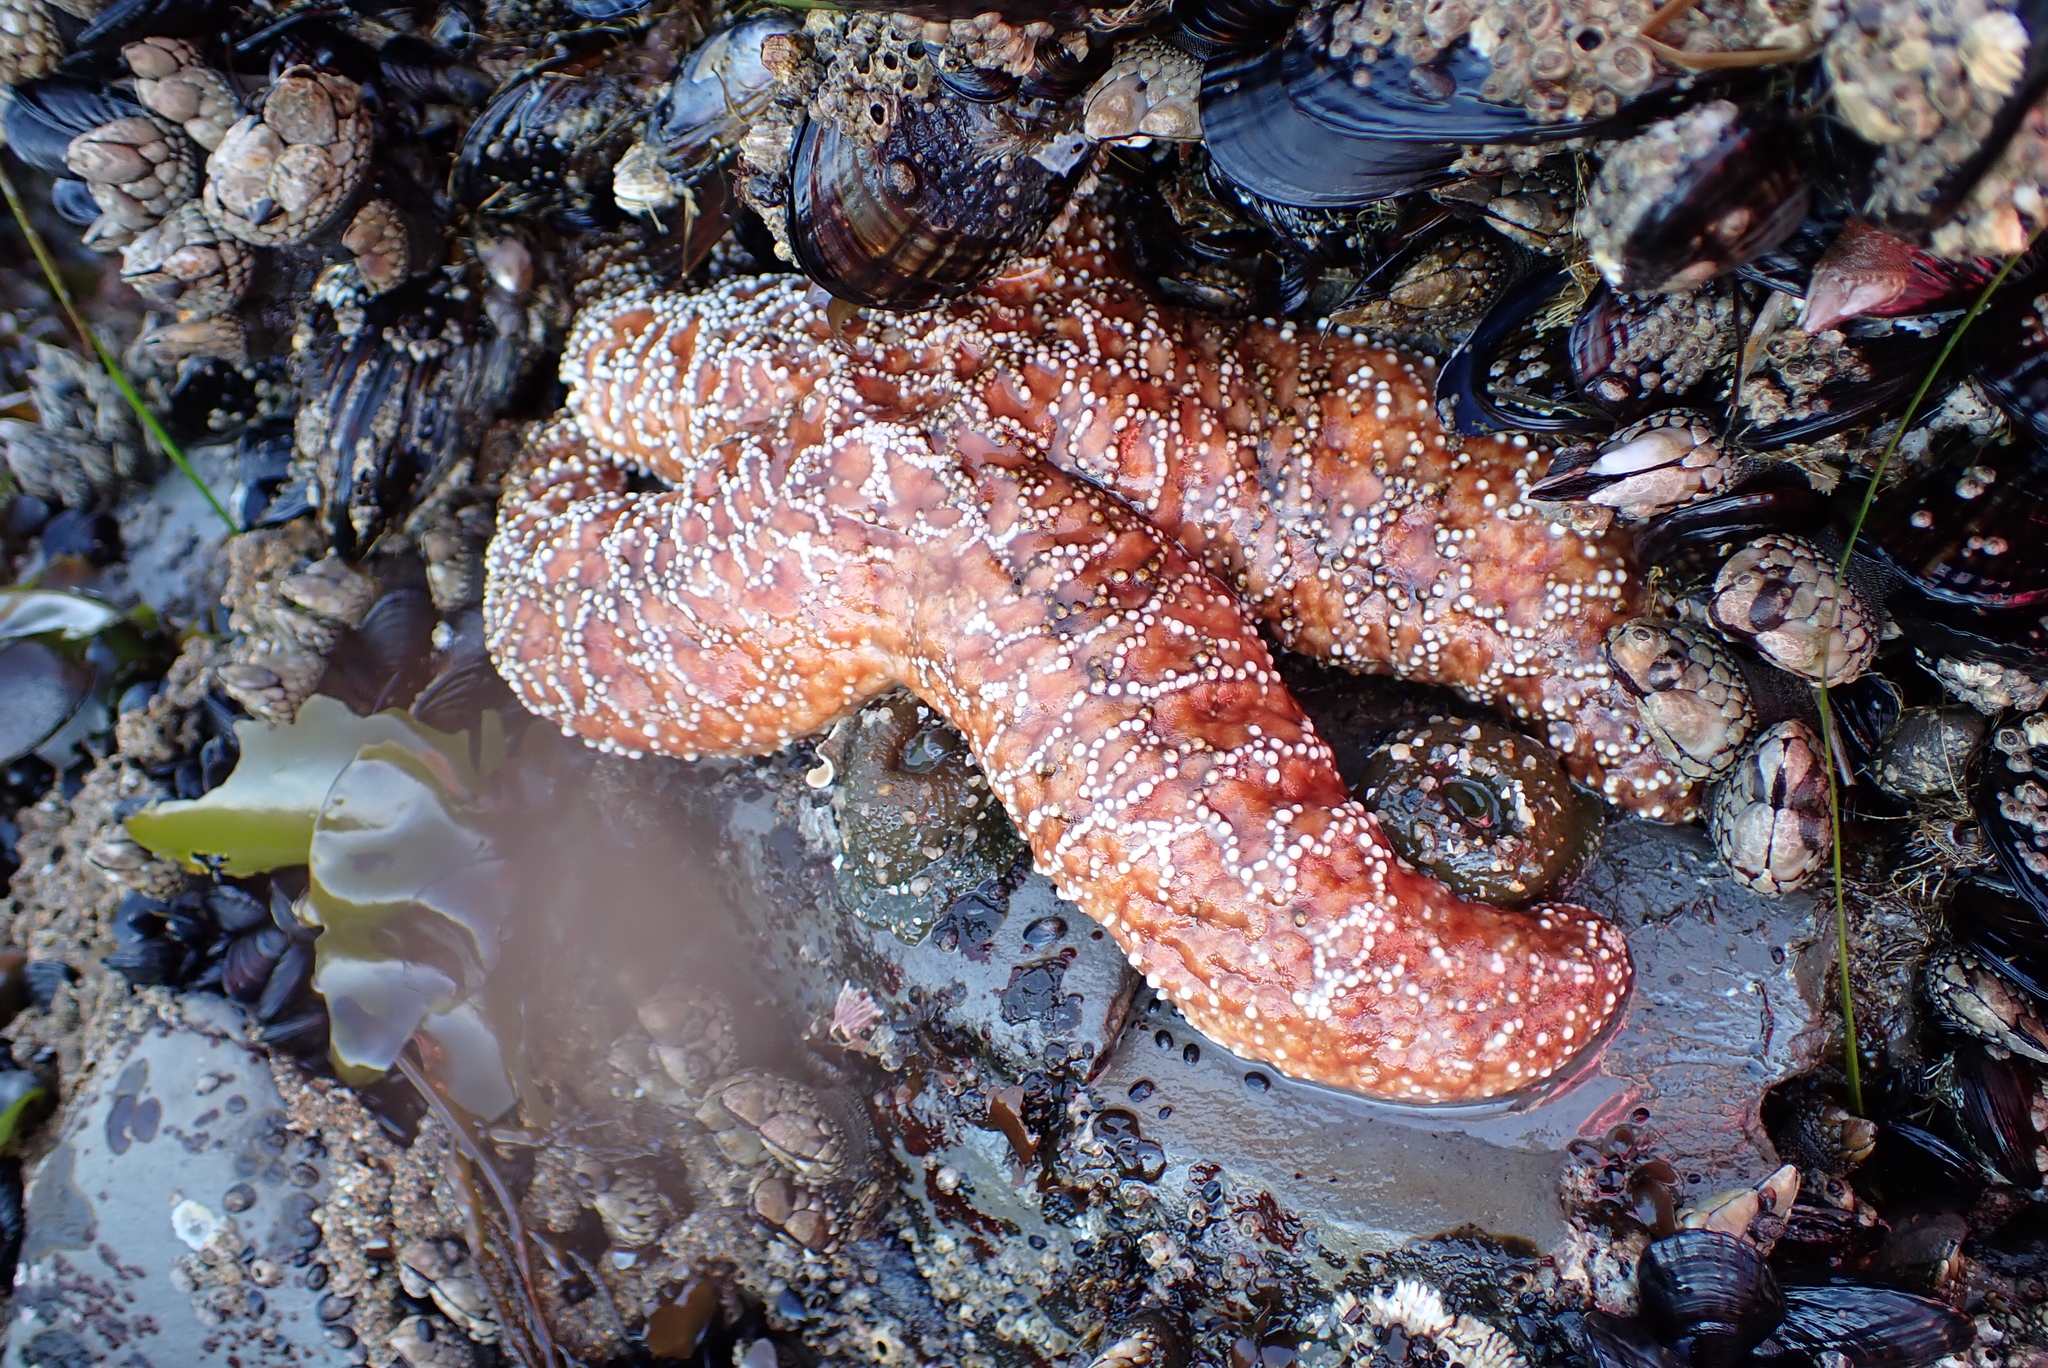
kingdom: Animalia
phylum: Echinodermata
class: Asteroidea
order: Forcipulatida
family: Asteriidae
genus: Pisaster
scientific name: Pisaster ochraceus
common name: Ochre stars
